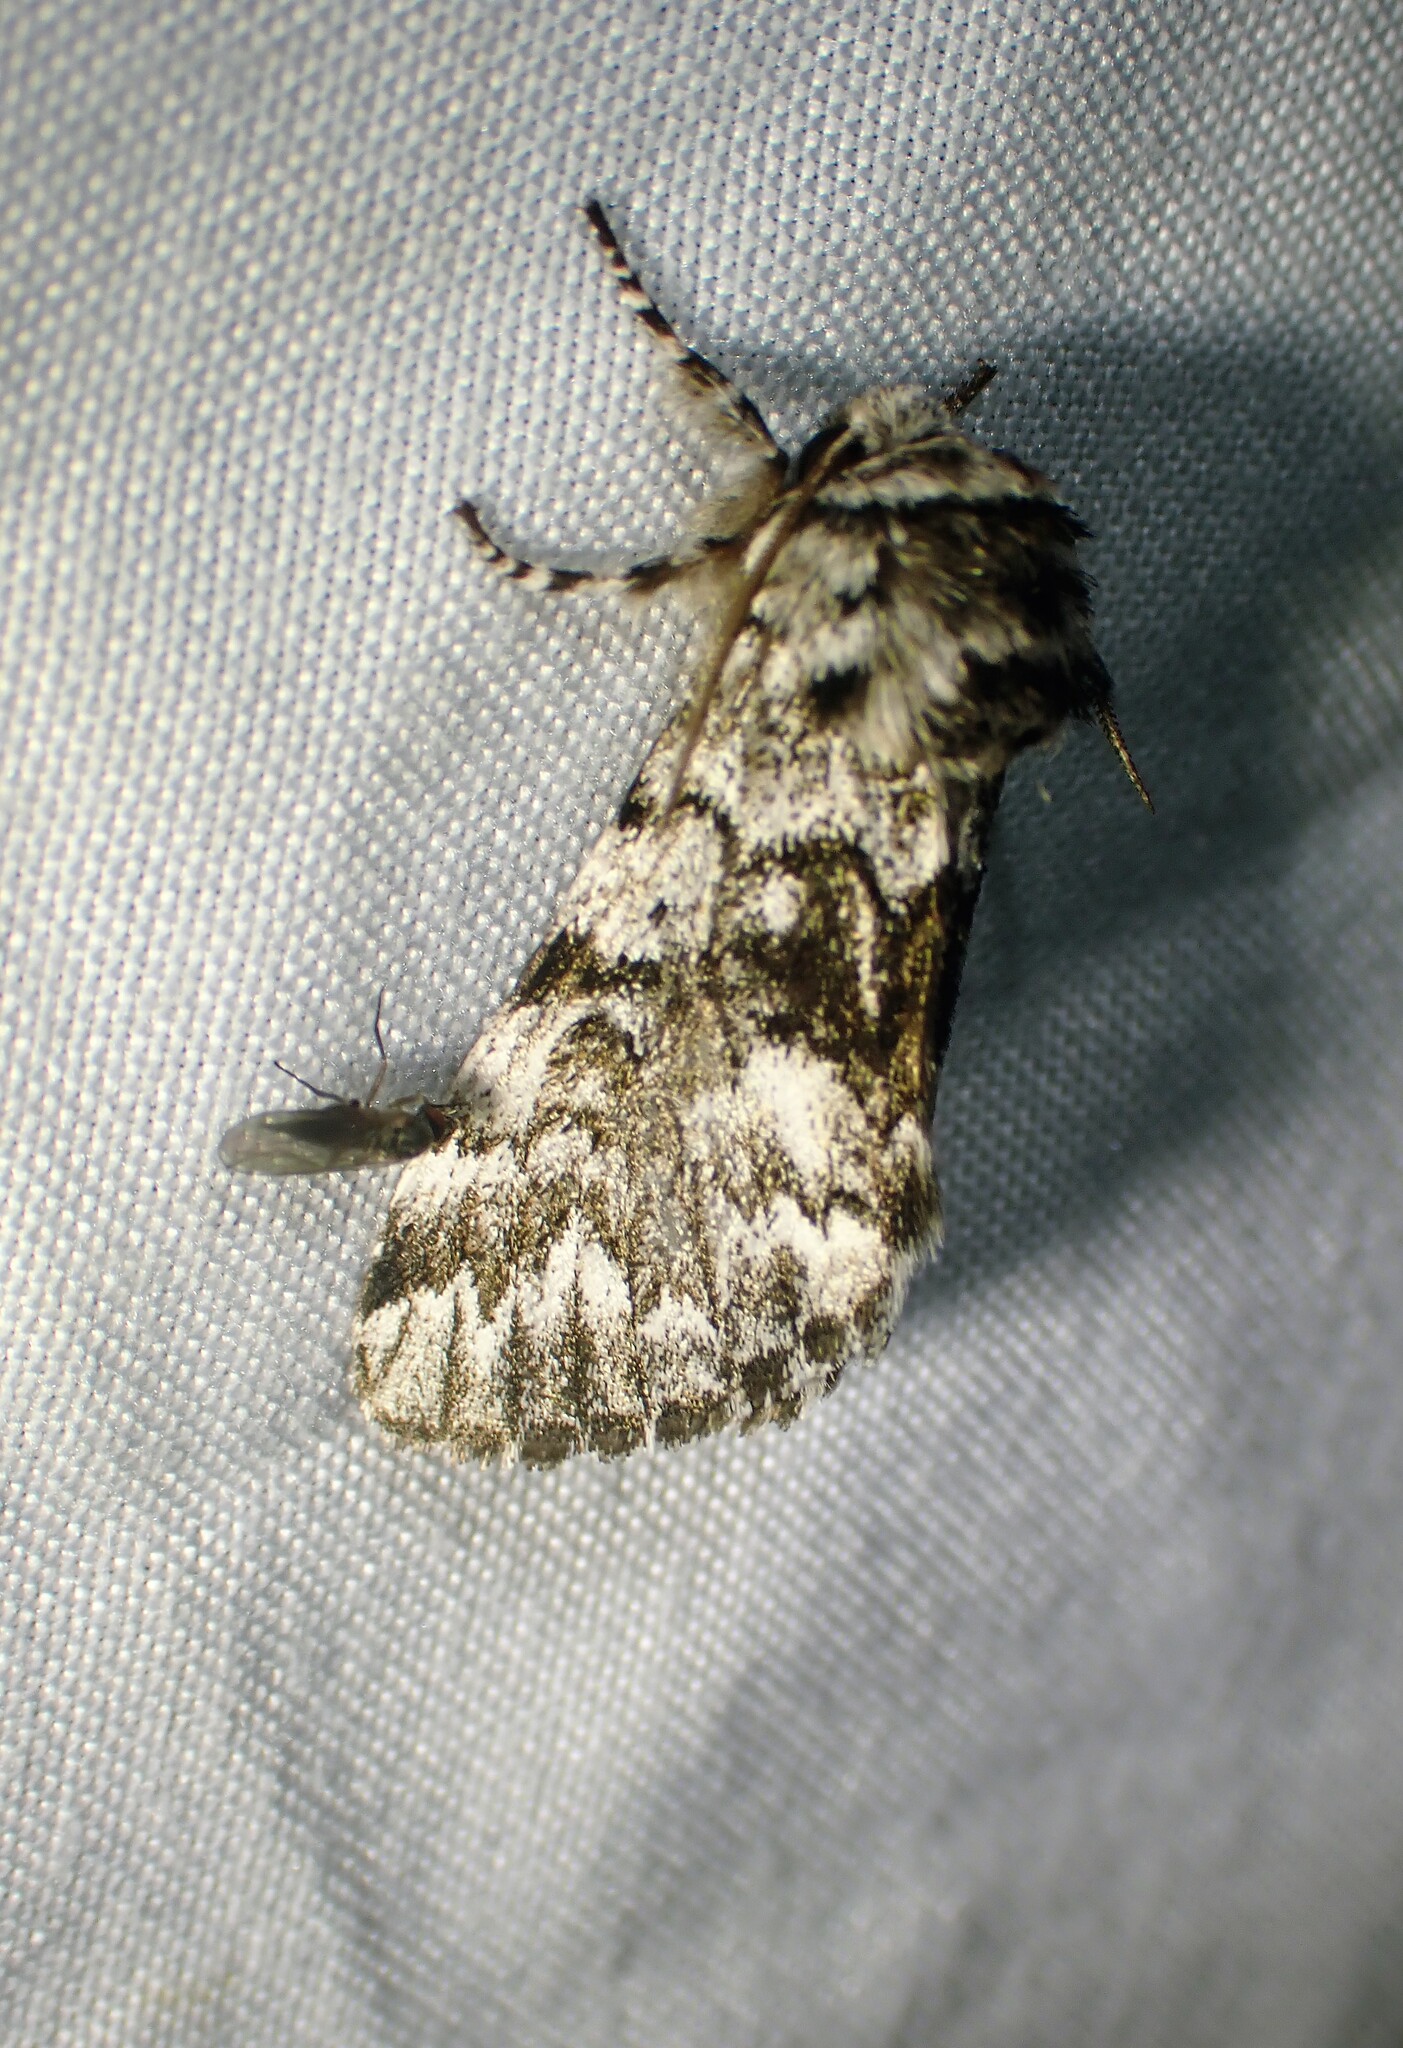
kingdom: Animalia
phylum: Arthropoda
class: Insecta
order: Lepidoptera
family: Noctuidae
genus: Panthea
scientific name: Panthea acronyctoides
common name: Black zigzag moth
